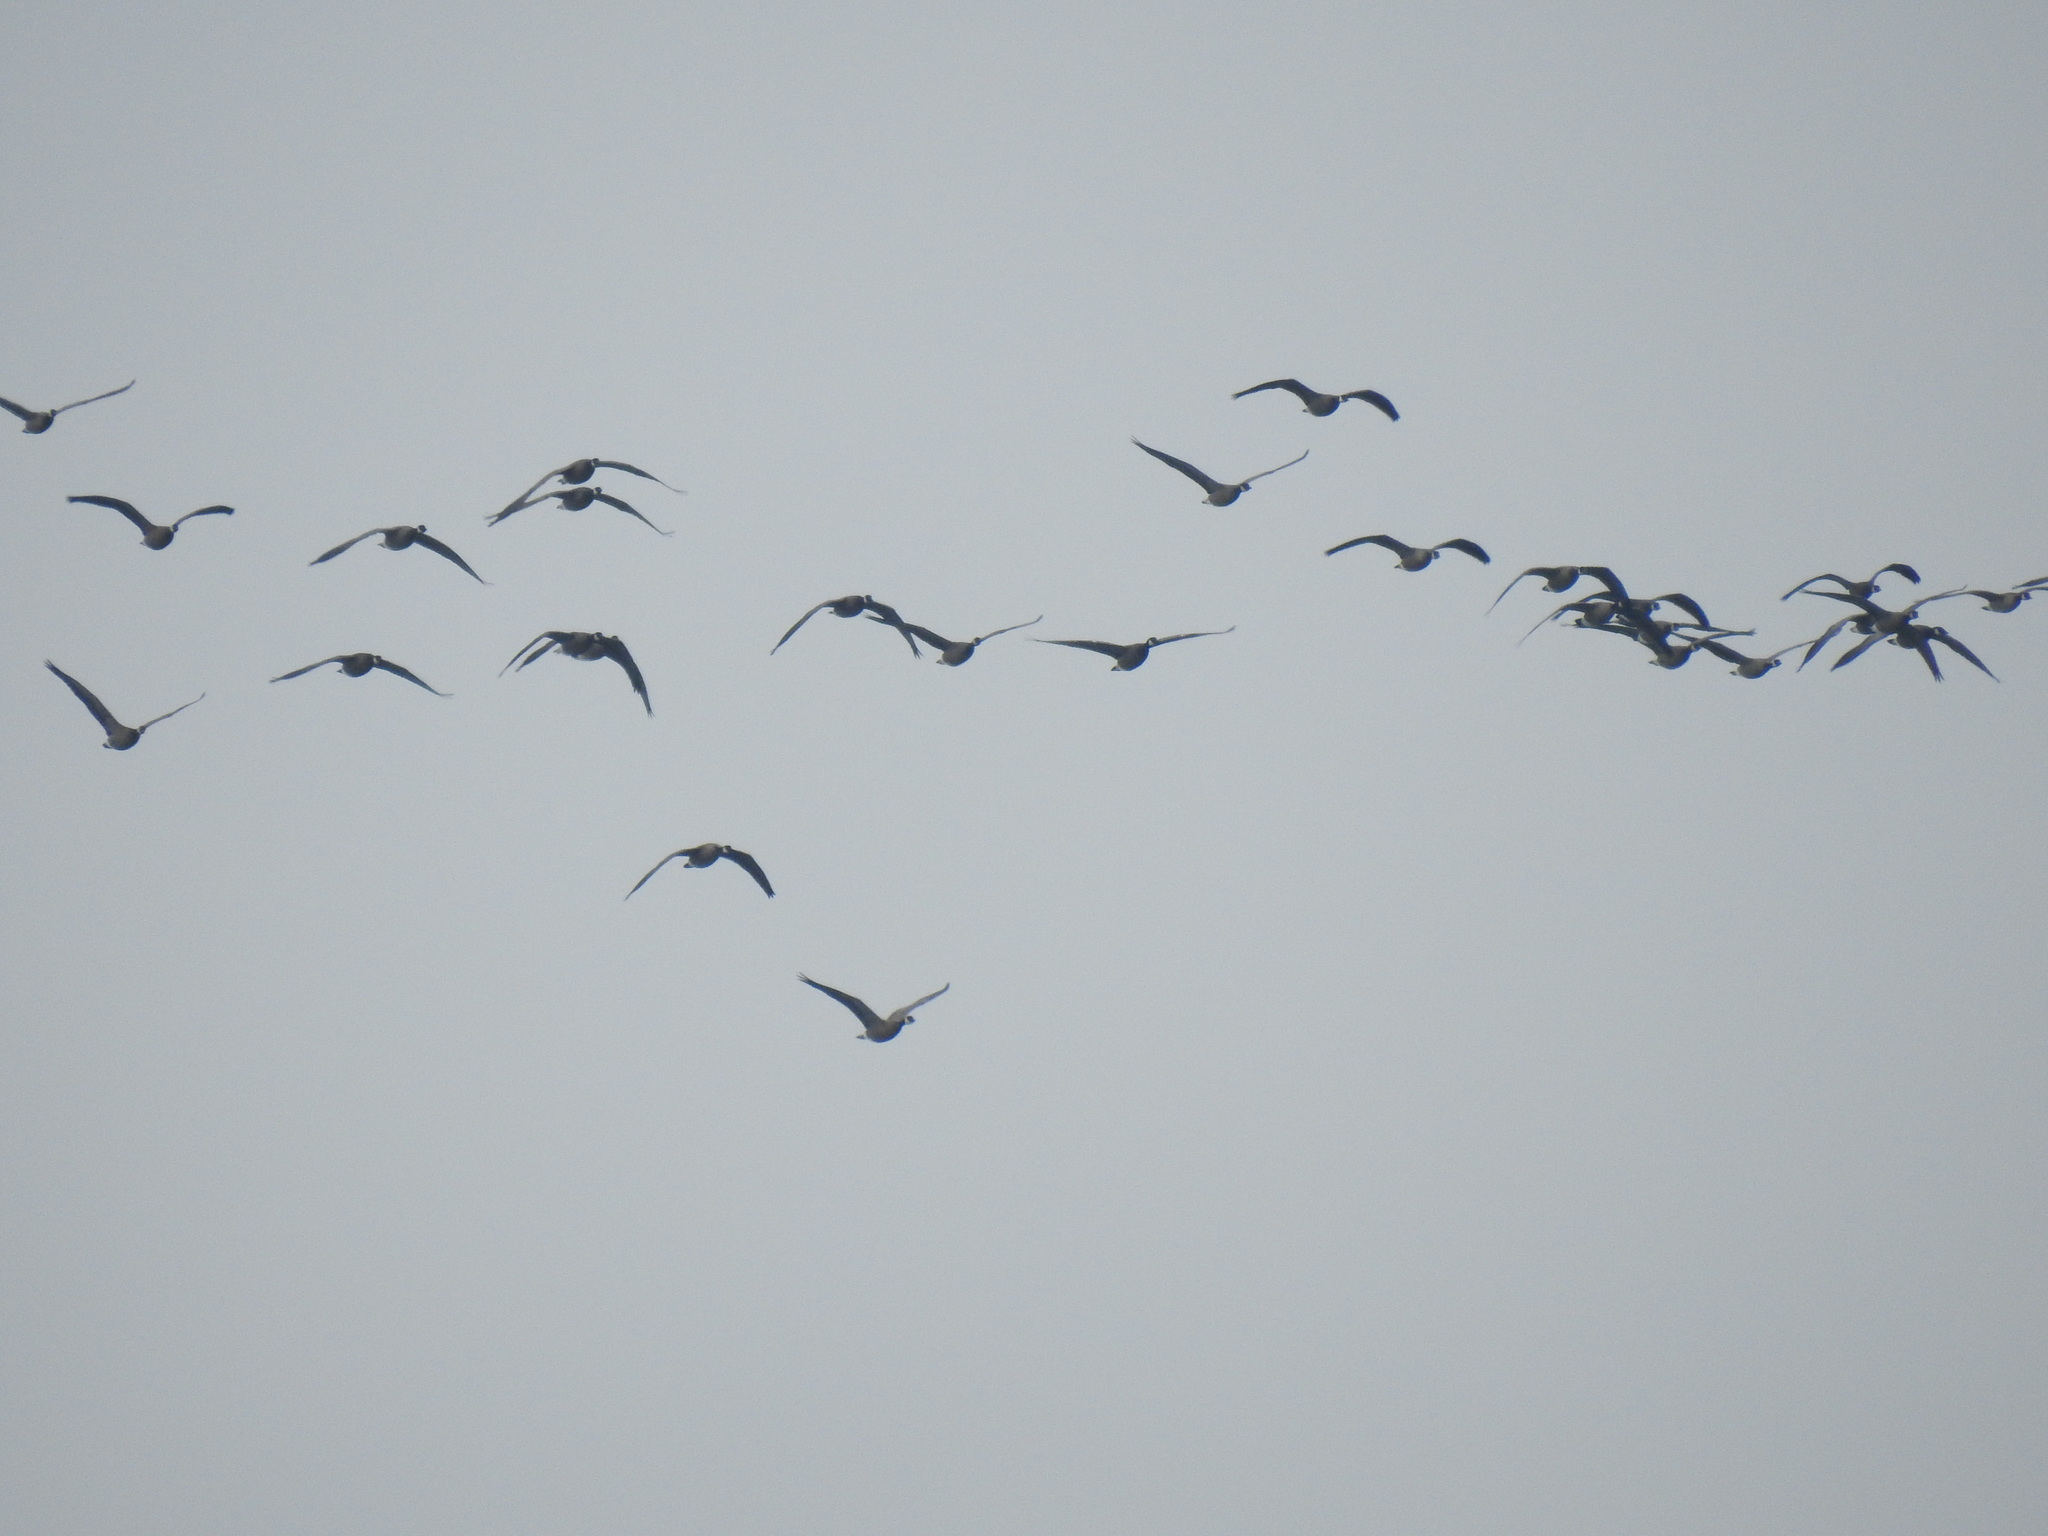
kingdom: Animalia
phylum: Chordata
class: Aves
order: Anseriformes
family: Anatidae
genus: Branta
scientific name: Branta hutchinsii
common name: Cackling goose
